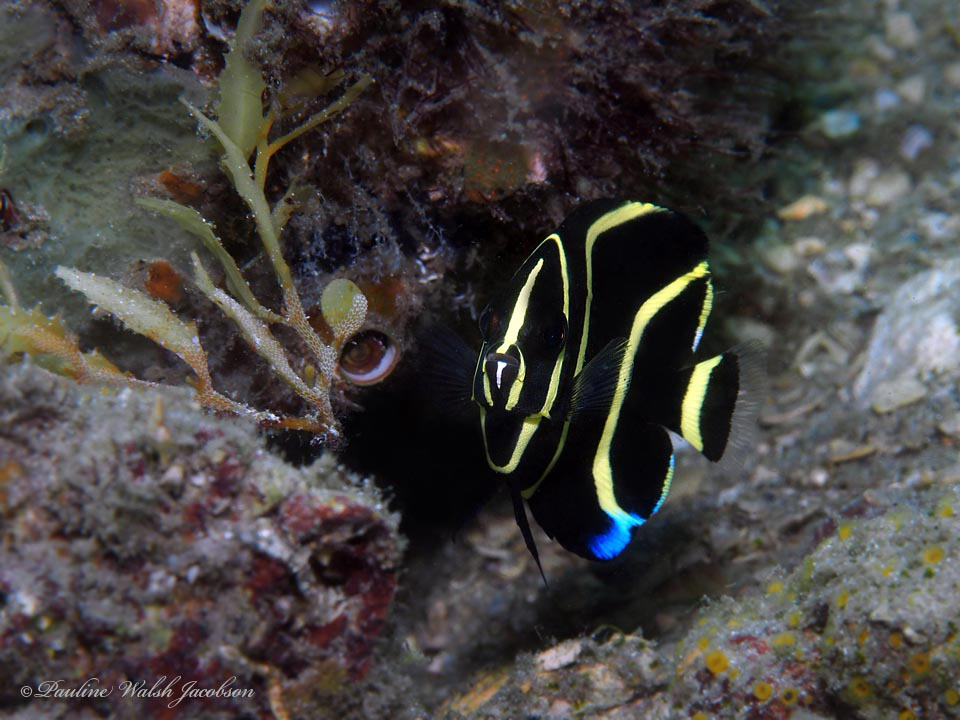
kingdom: Animalia
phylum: Chordata
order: Perciformes
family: Pomacanthidae
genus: Pomacanthus
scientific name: Pomacanthus arcuatus
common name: Gray angelfish
